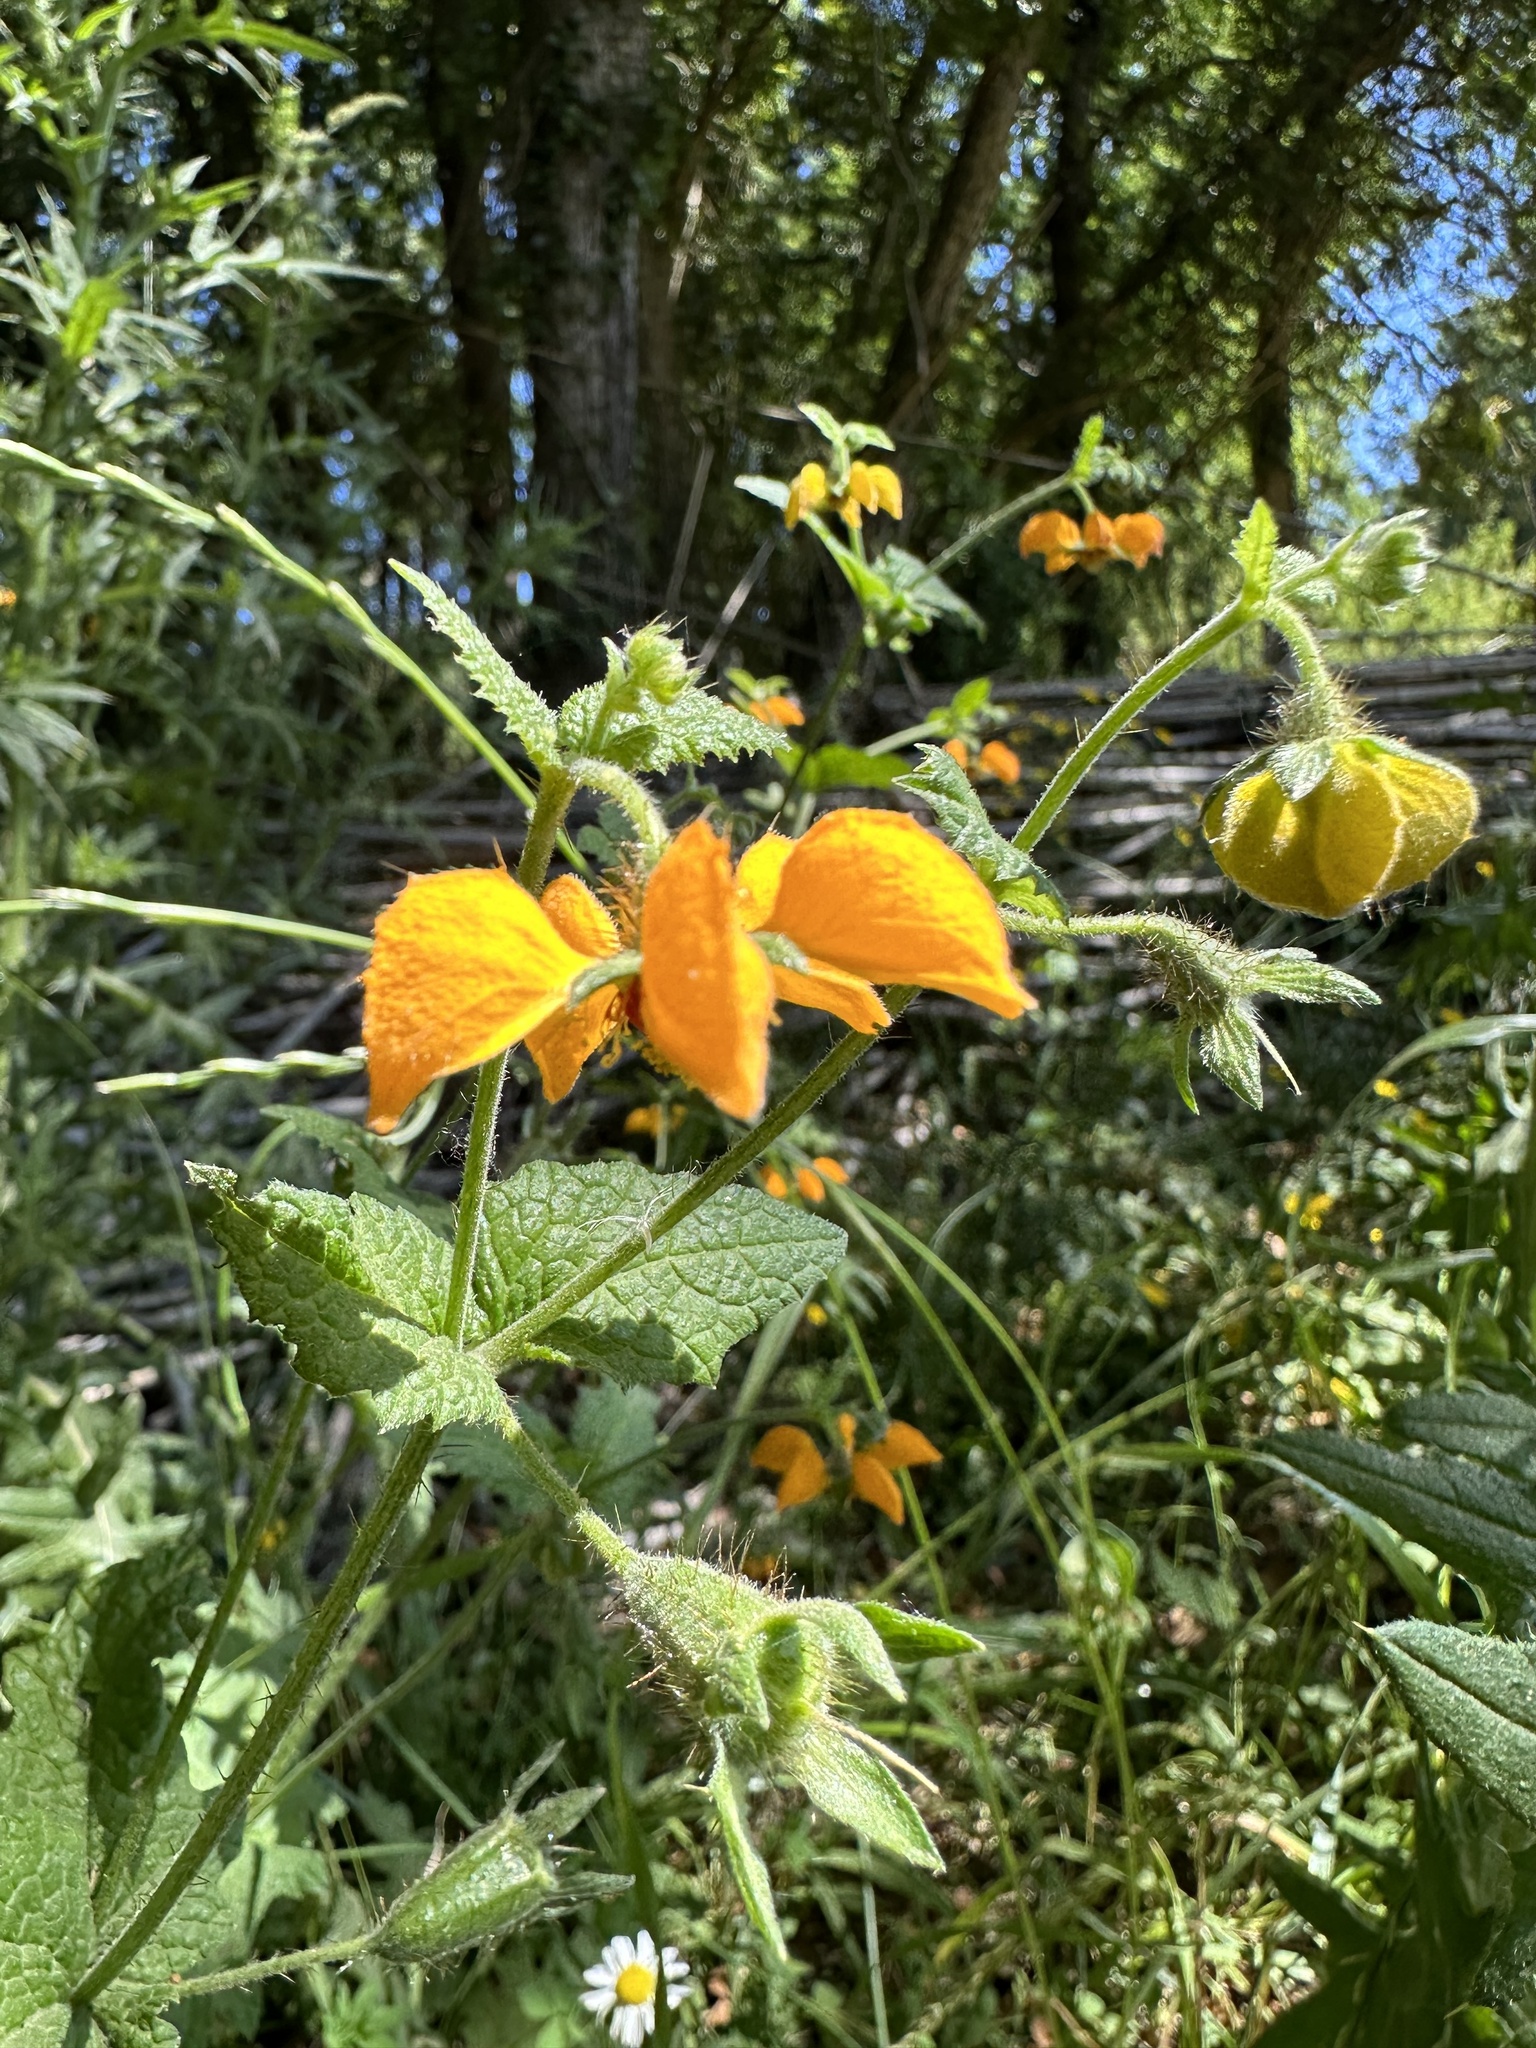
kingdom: Plantae
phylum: Tracheophyta
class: Magnoliopsida
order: Cornales
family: Loasaceae
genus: Loasa
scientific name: Loasa sclareifolia
